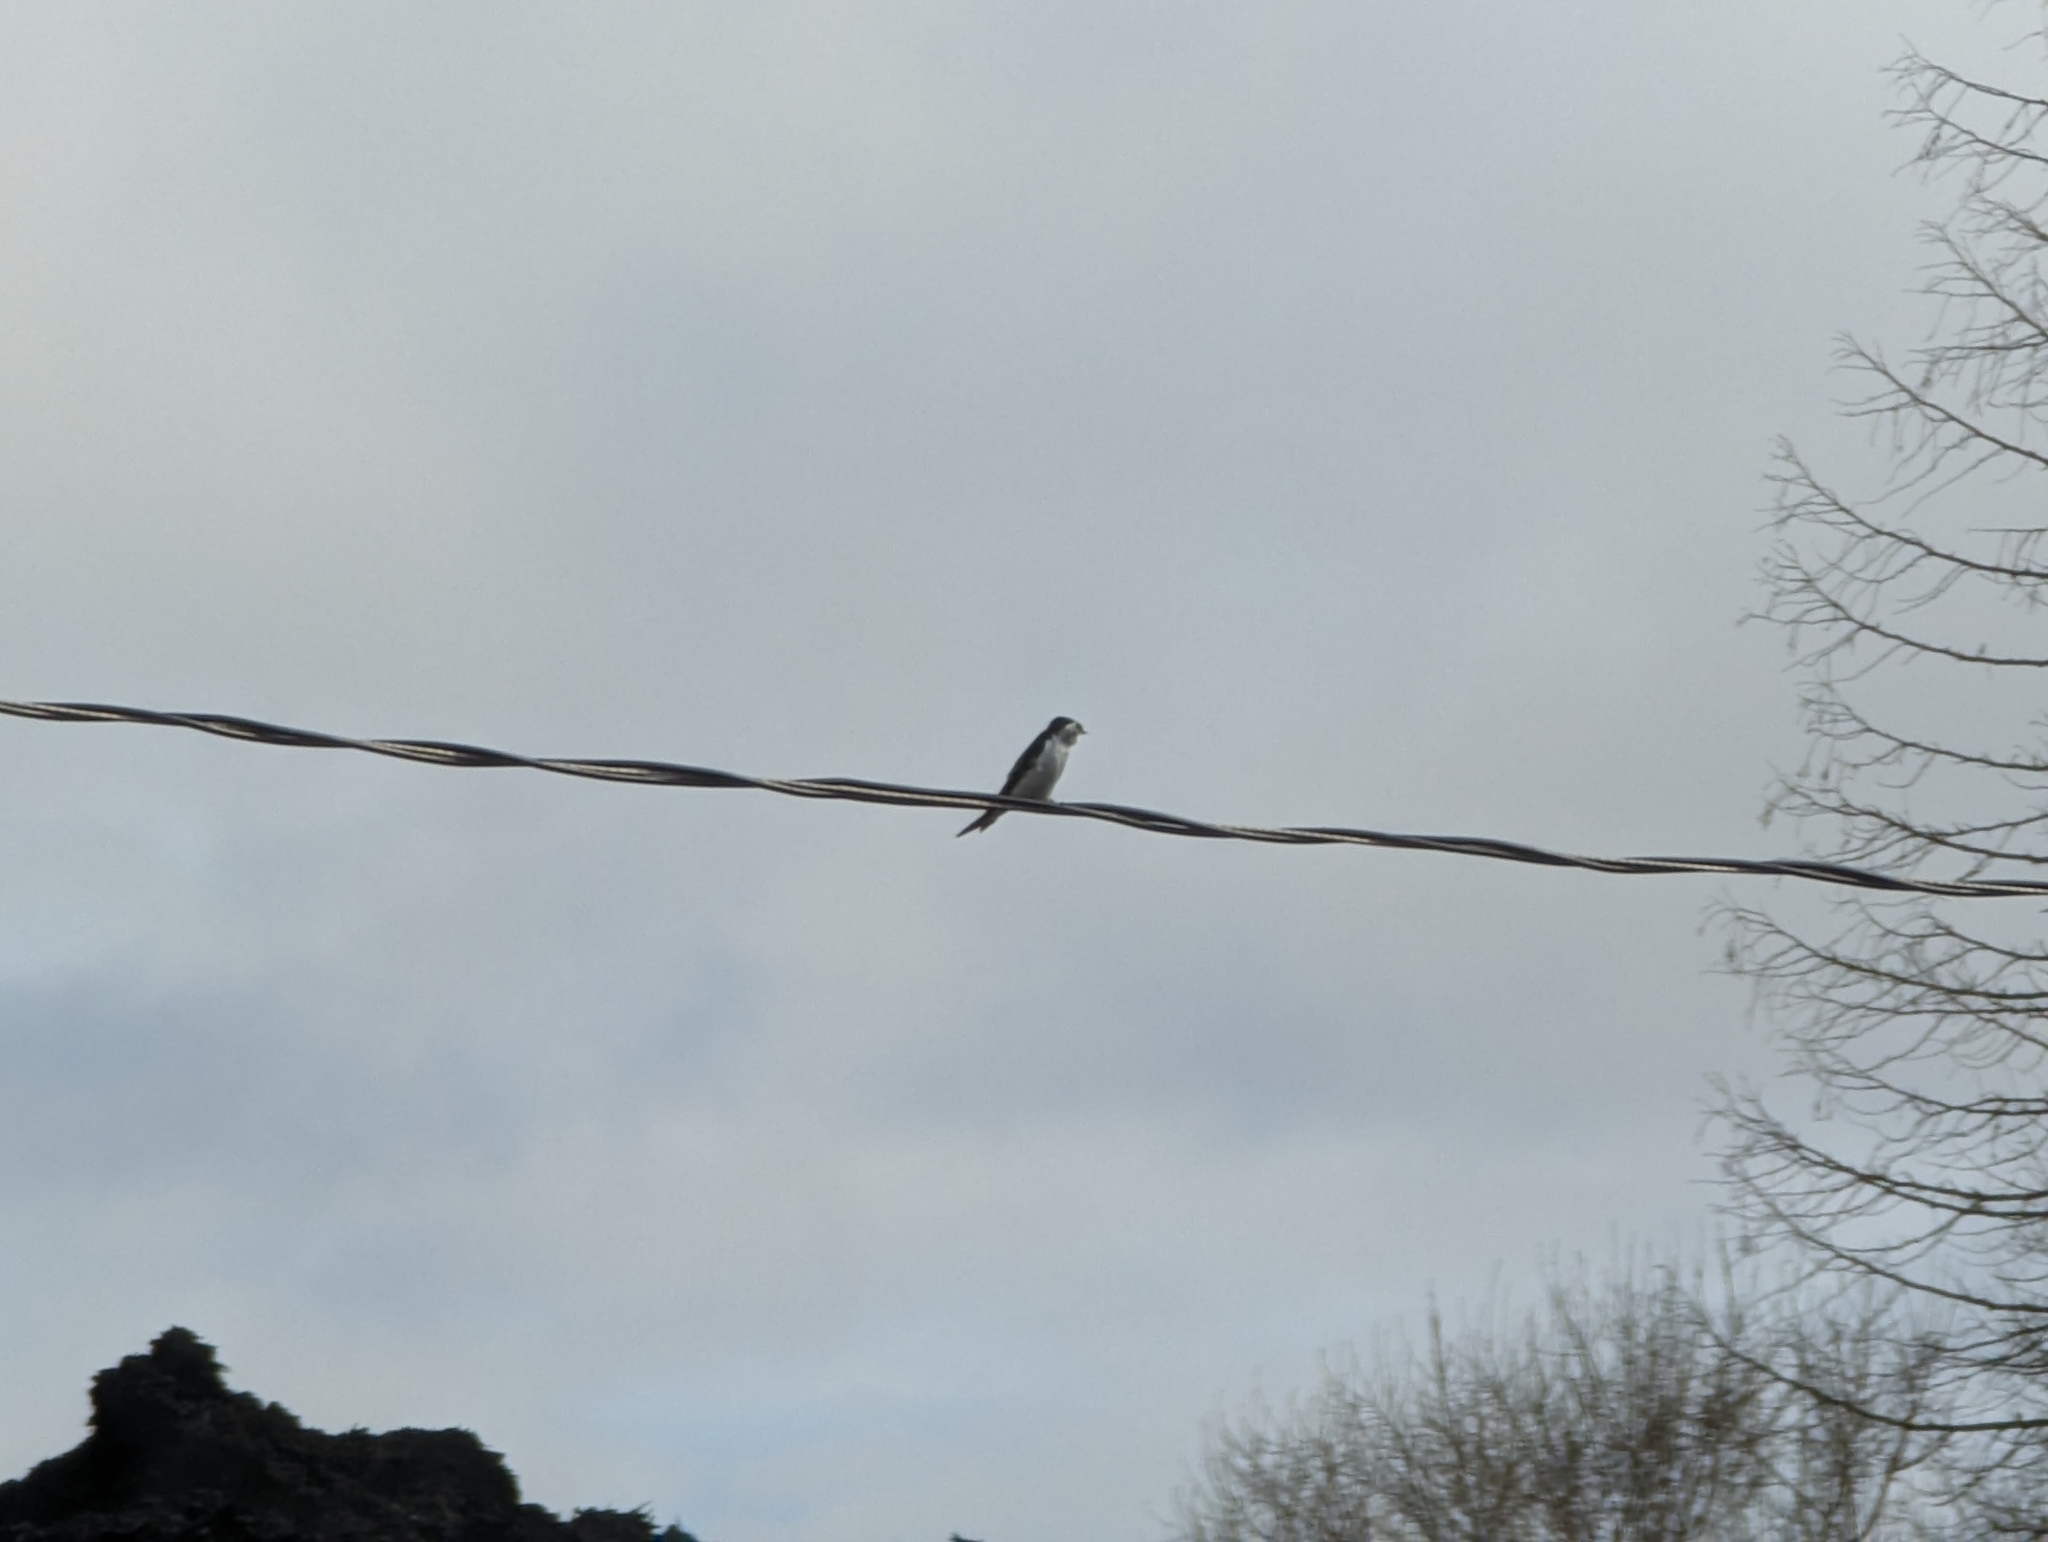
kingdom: Animalia
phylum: Chordata
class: Aves
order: Passeriformes
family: Hirundinidae
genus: Tachycineta
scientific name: Tachycineta thalassina
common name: Violet-green swallow
